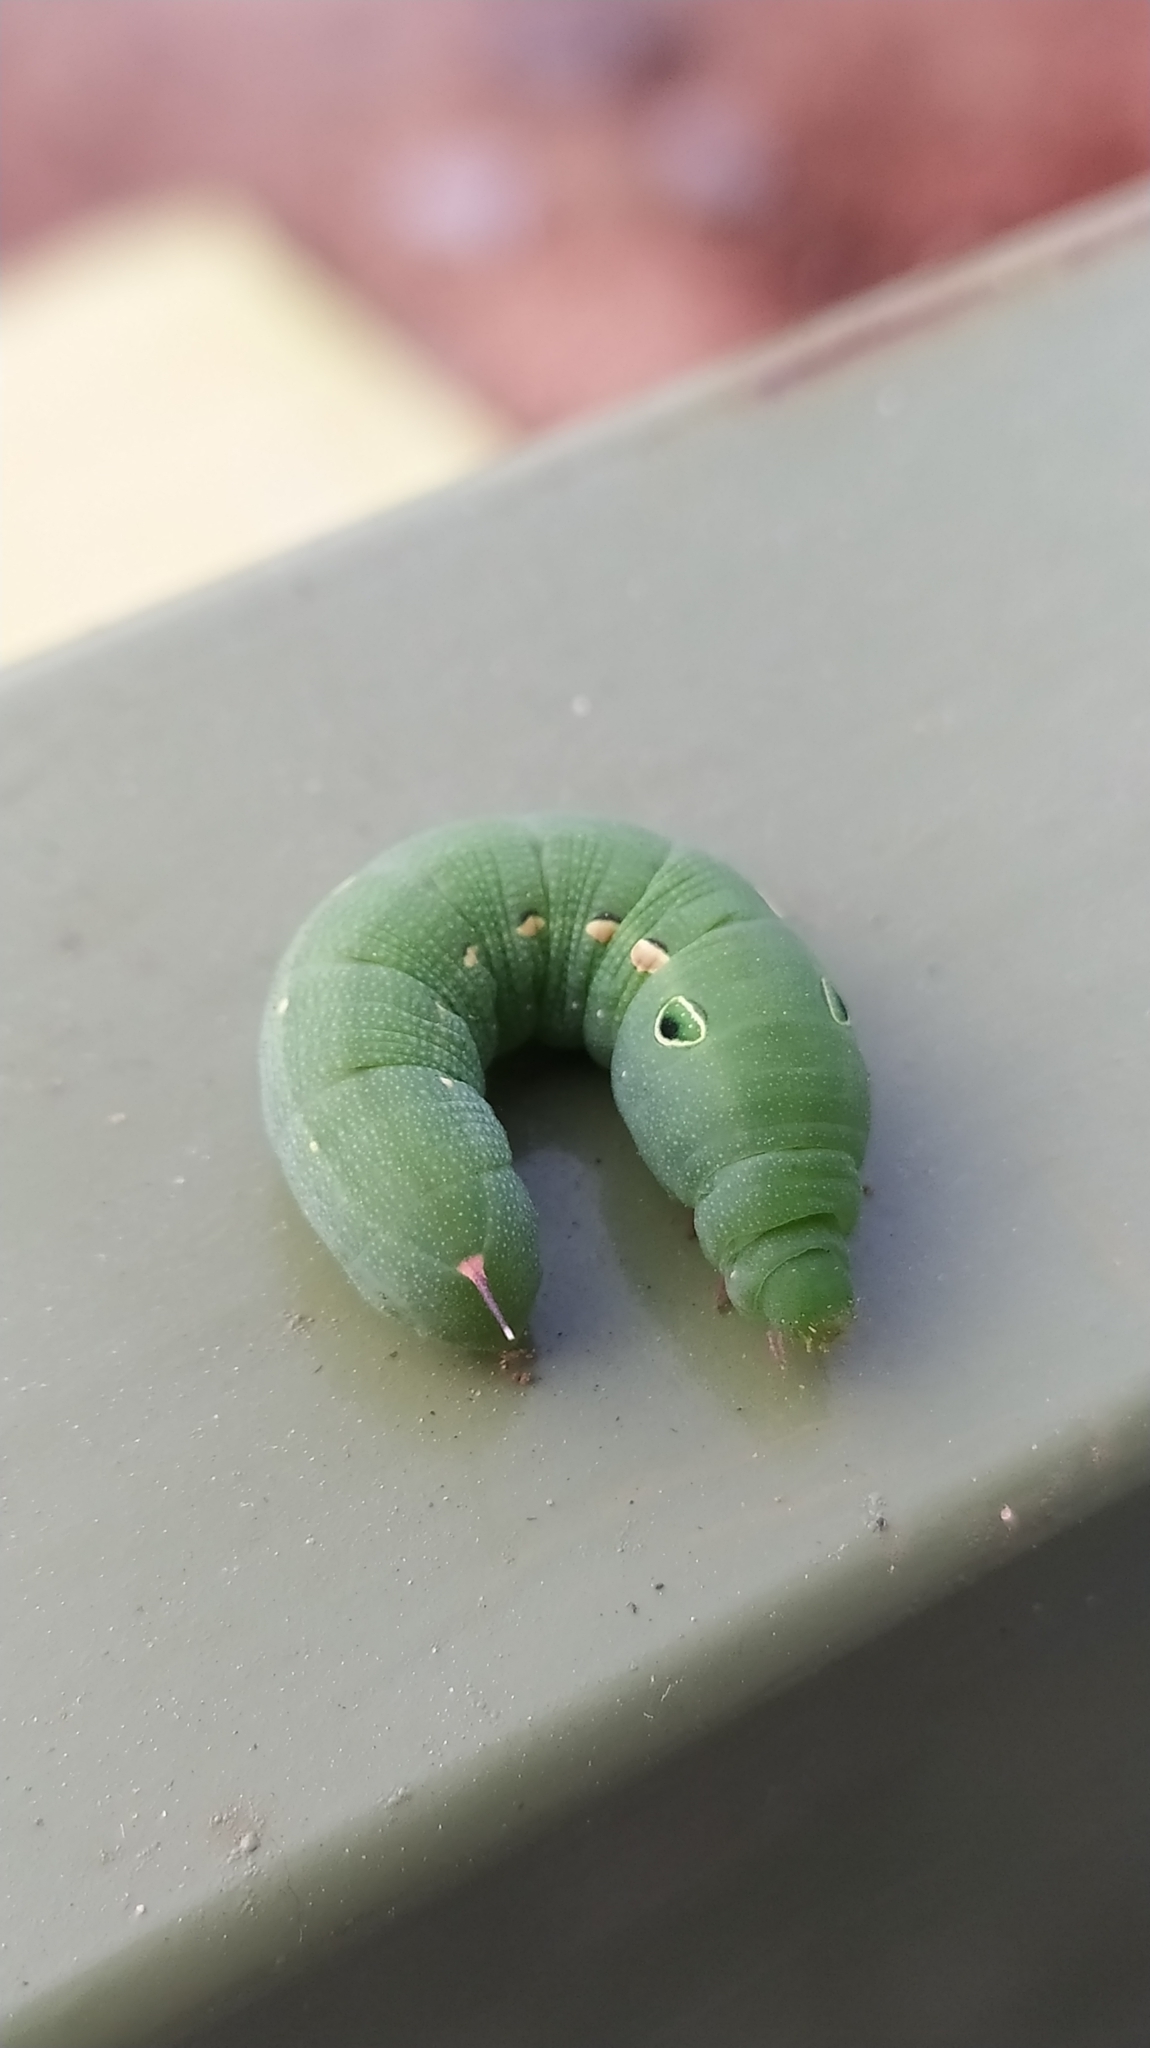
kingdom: Animalia
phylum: Arthropoda
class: Insecta
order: Lepidoptera
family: Sphingidae
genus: Hippotion
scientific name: Hippotion rosetta
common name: Vine hawk moth
